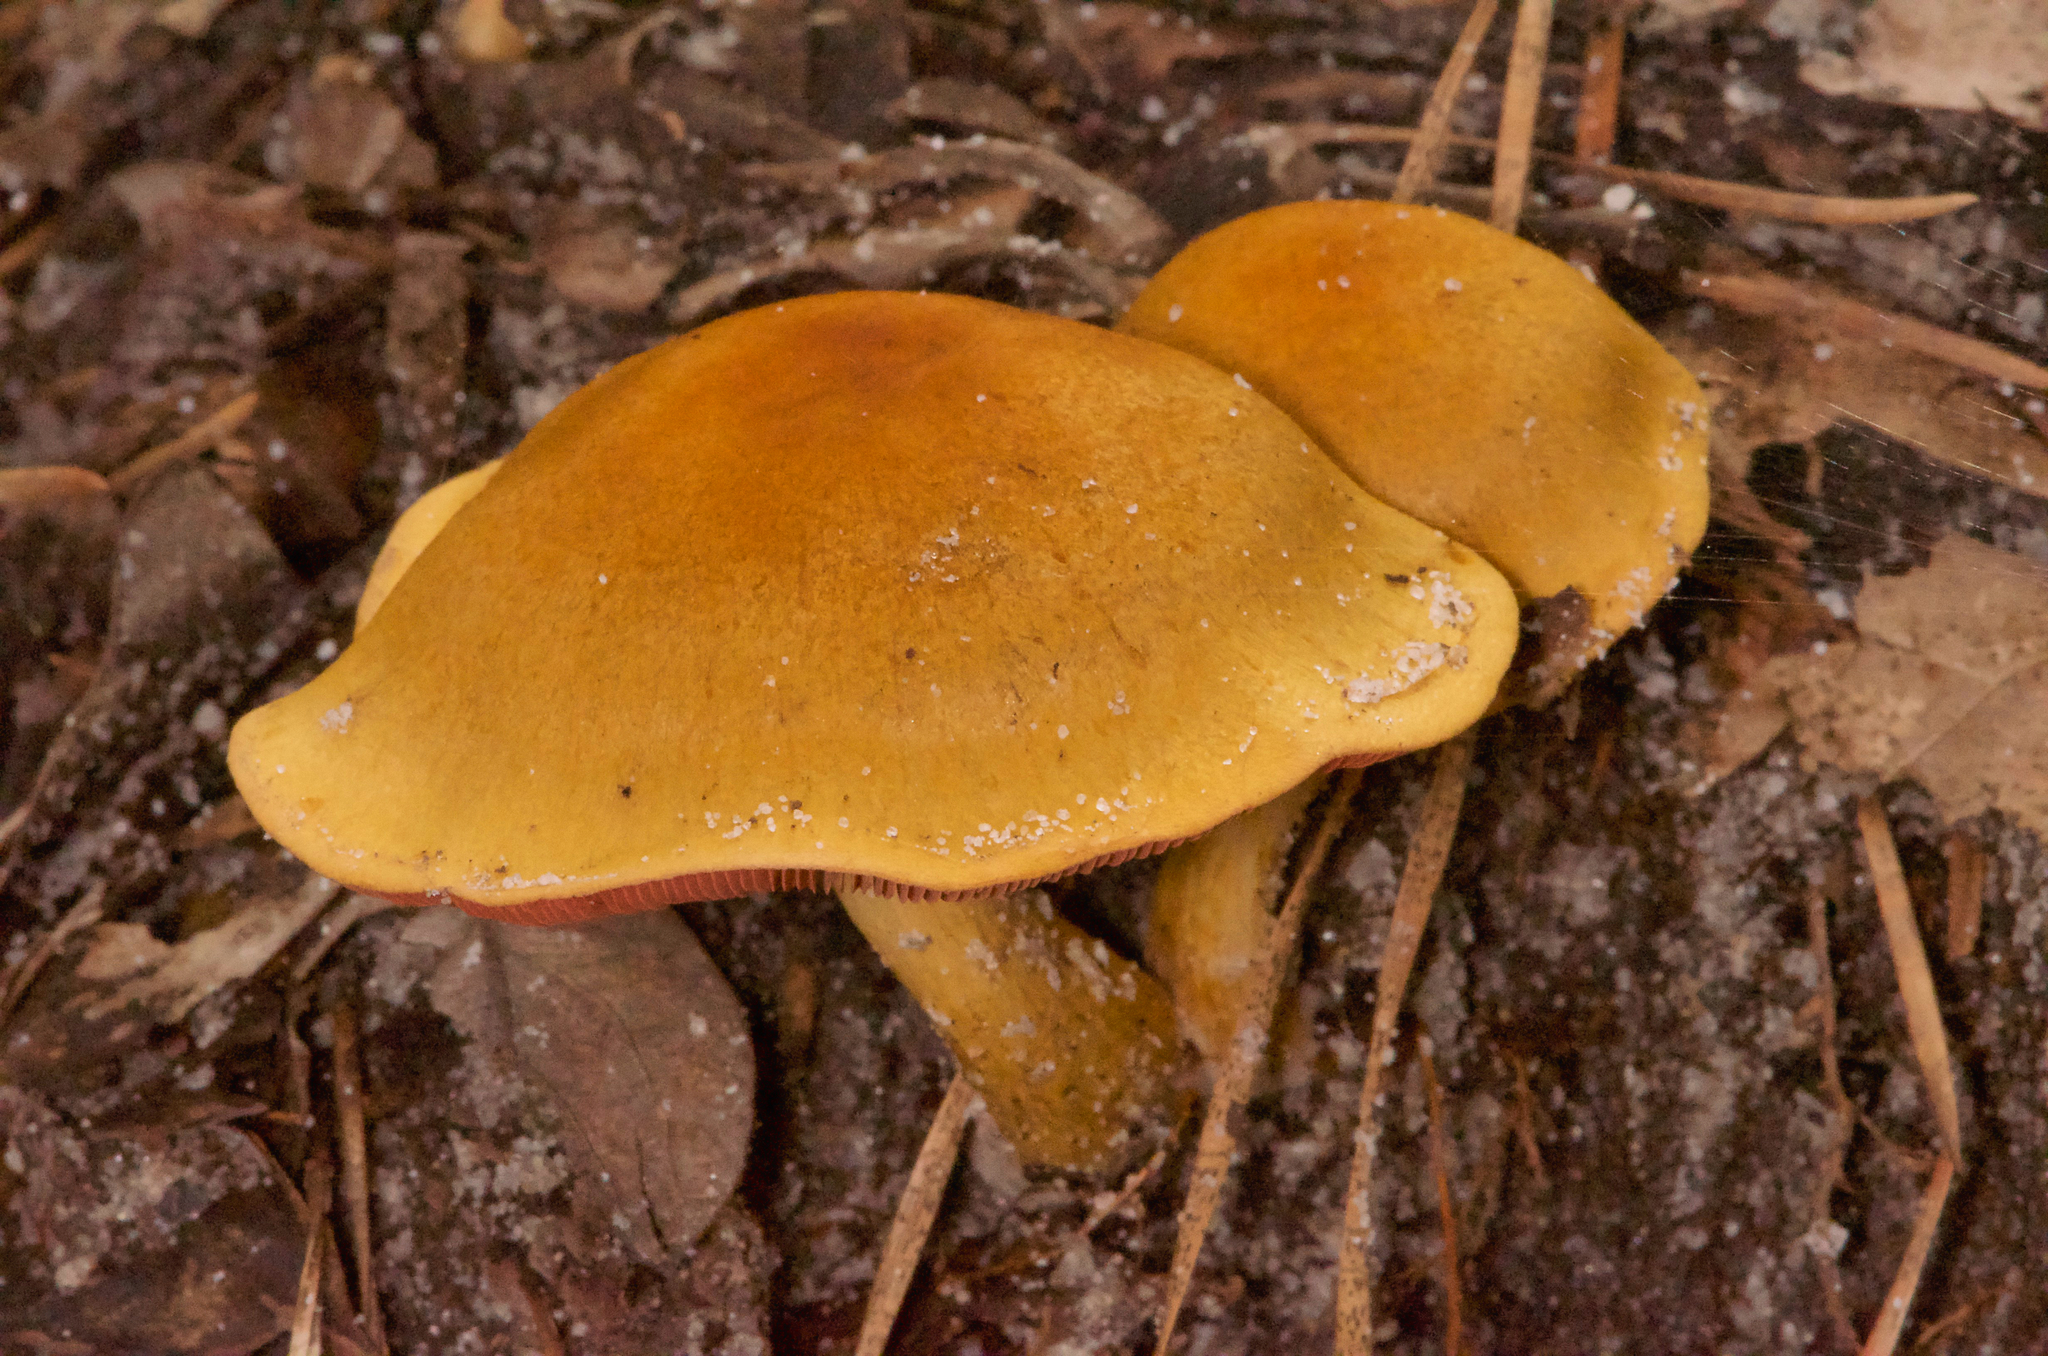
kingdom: Fungi
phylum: Basidiomycota
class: Agaricomycetes
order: Agaricales
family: Cortinariaceae
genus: Cortinarius
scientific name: Cortinarius semisanguineus
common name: Surprise webcap
